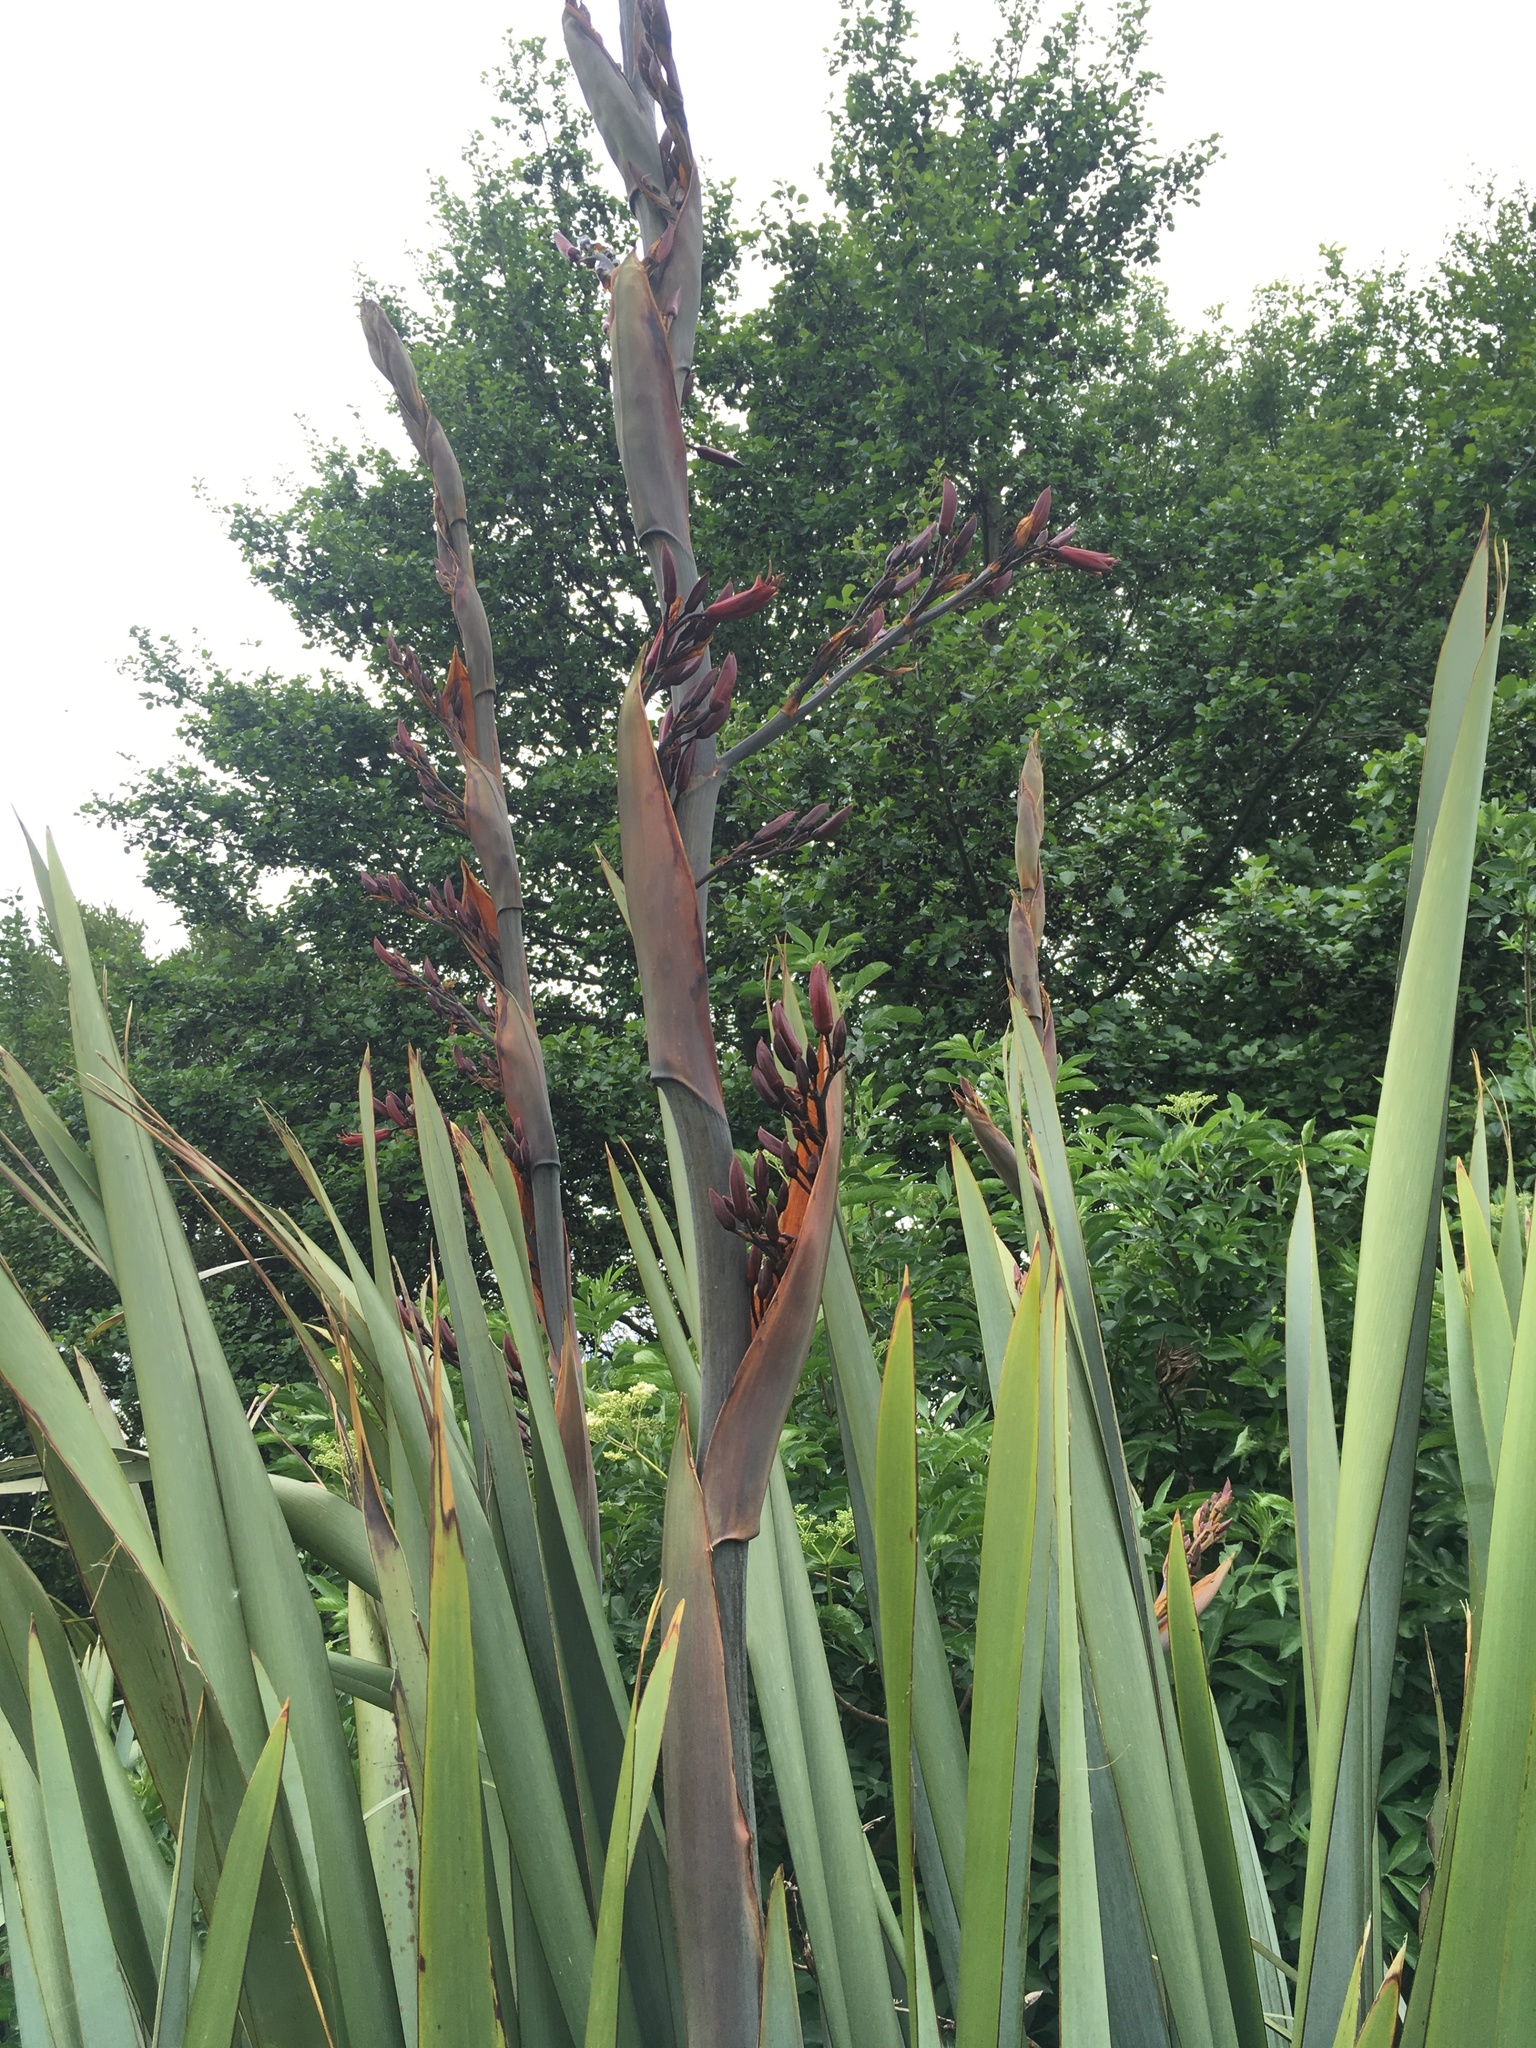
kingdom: Plantae
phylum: Tracheophyta
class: Liliopsida
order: Asparagales
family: Asphodelaceae
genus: Phormium
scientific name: Phormium tenax
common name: New zealand flax
